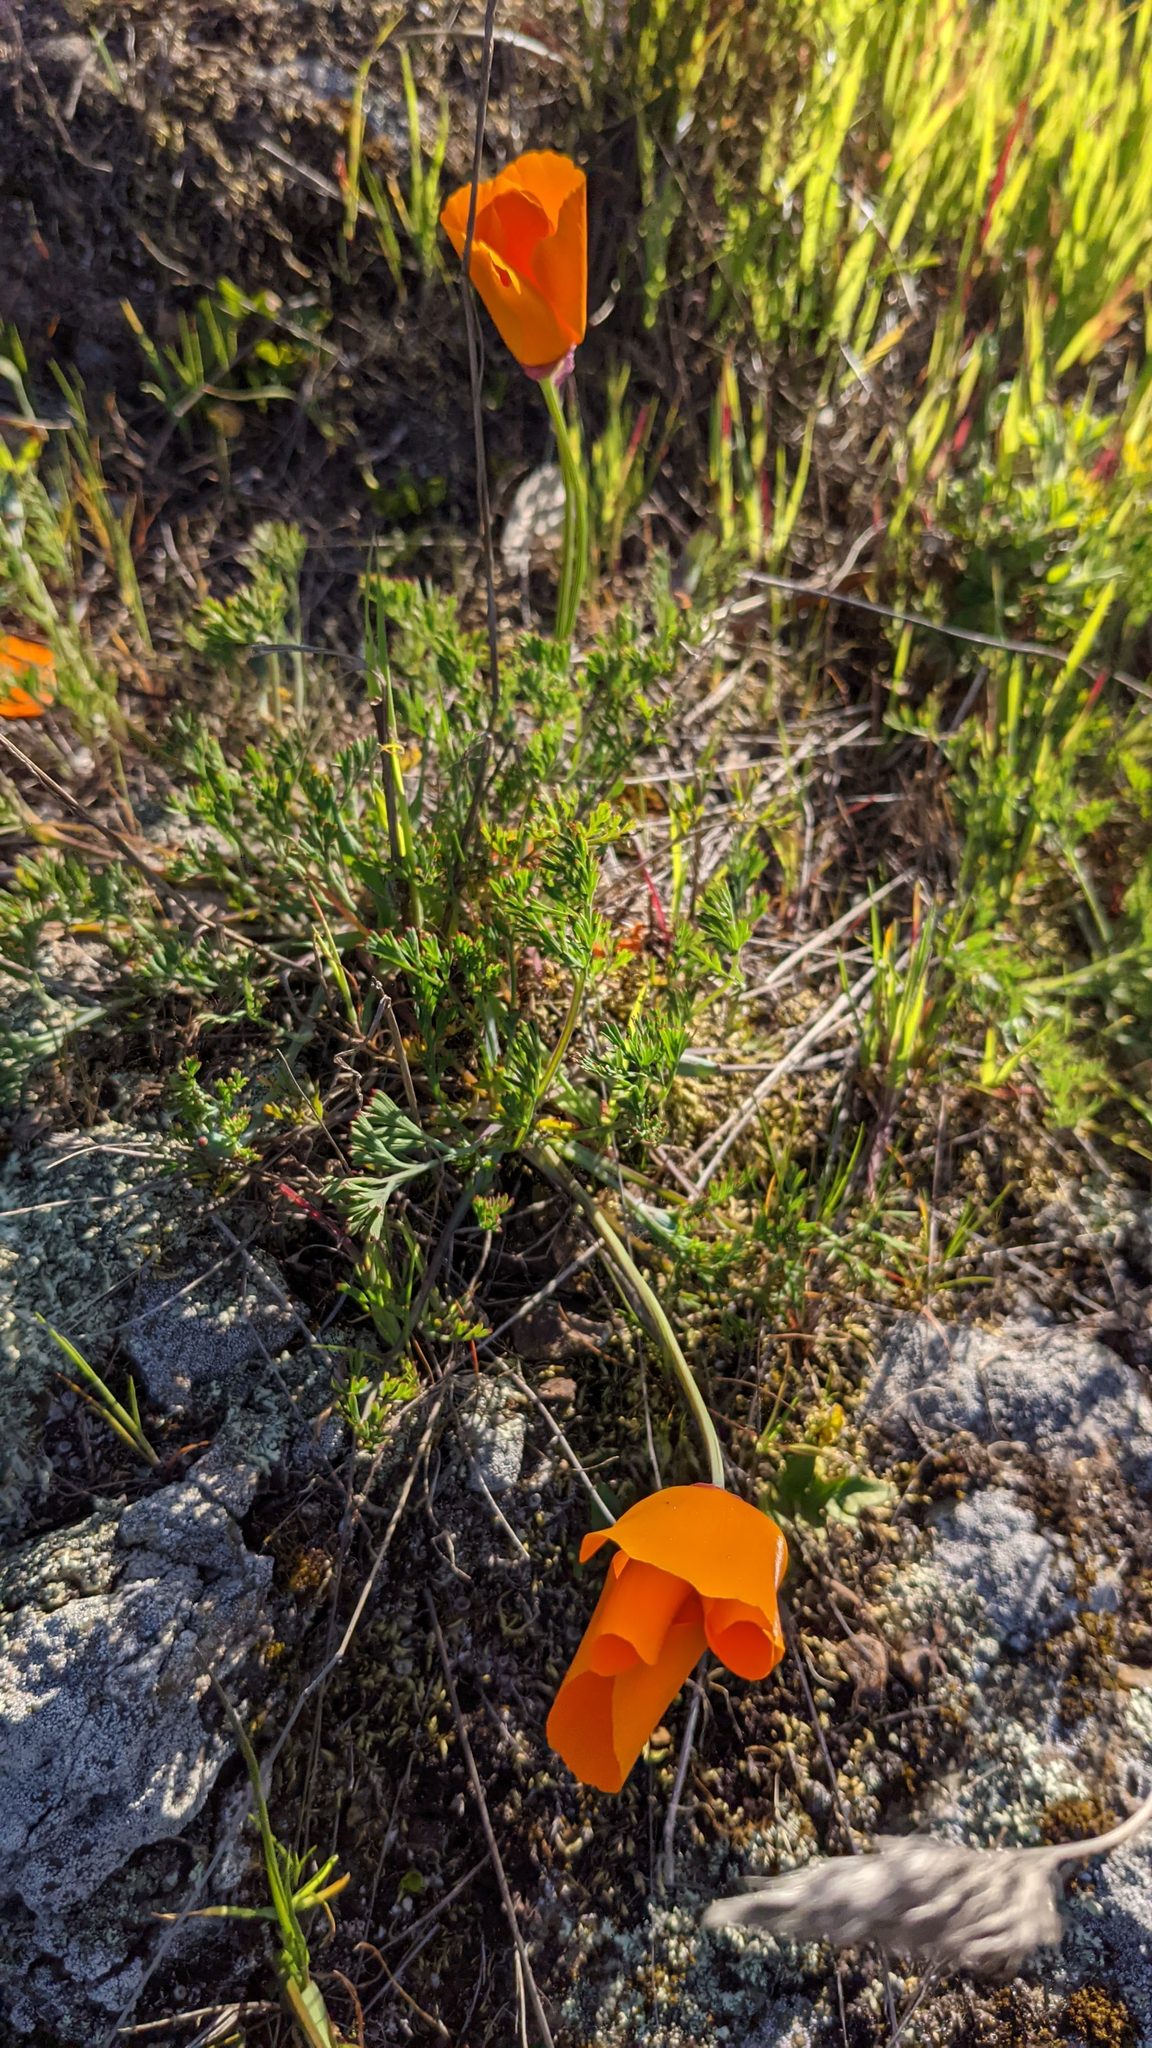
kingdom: Plantae
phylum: Tracheophyta
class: Magnoliopsida
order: Ranunculales
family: Papaveraceae
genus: Eschscholzia
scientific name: Eschscholzia californica
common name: California poppy
